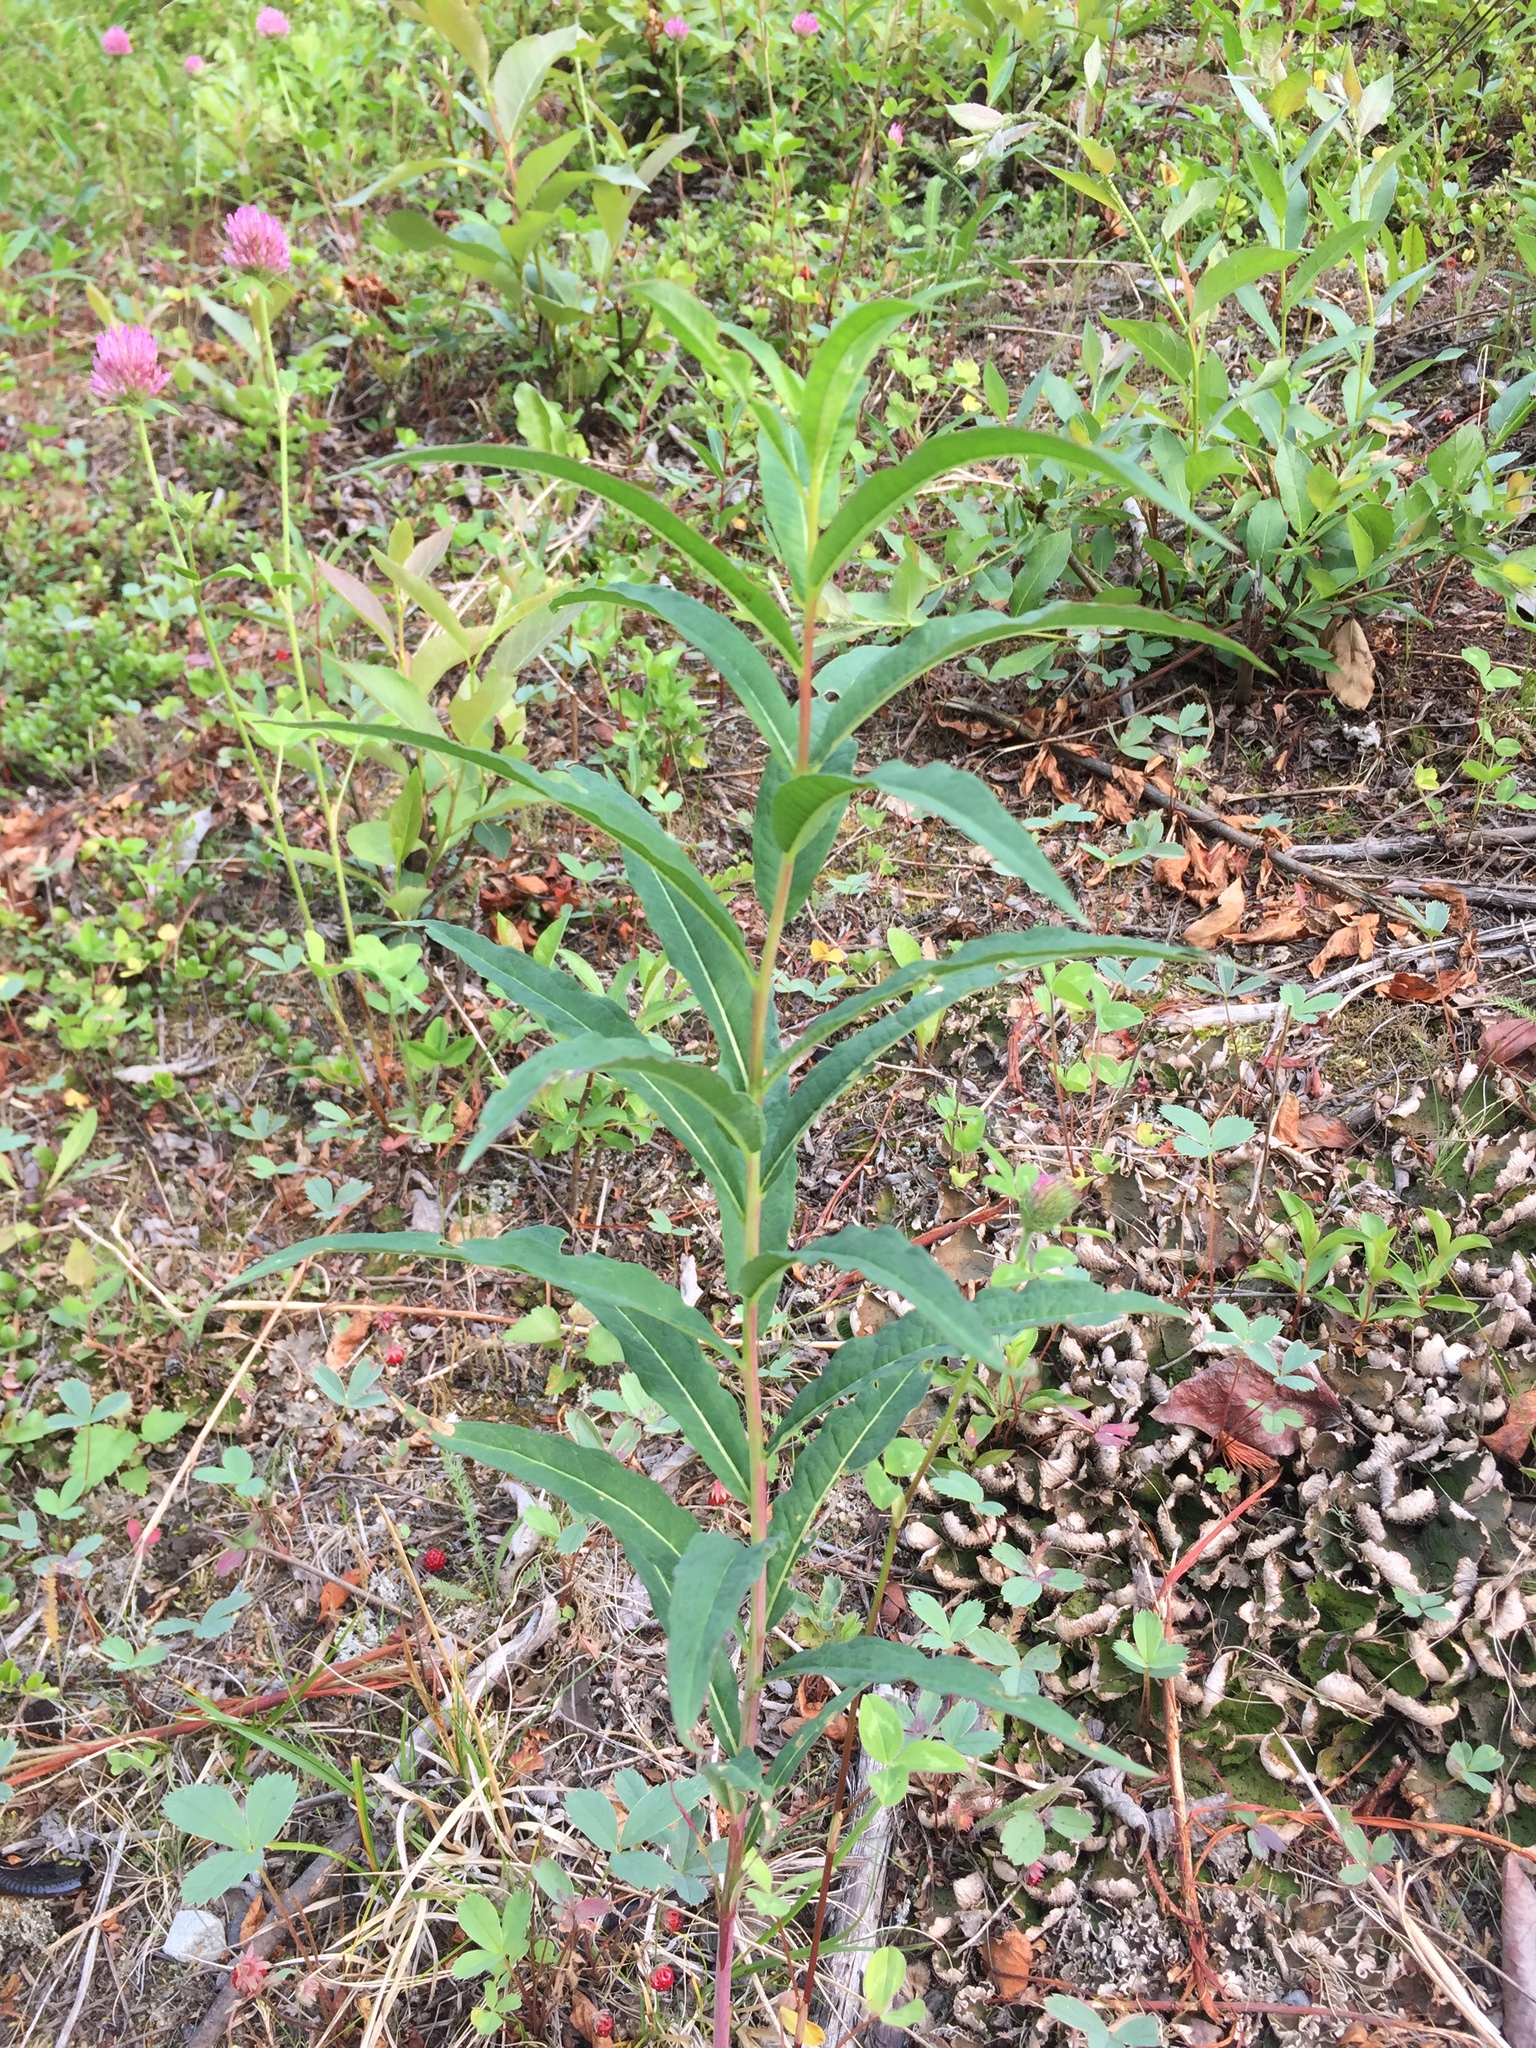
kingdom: Plantae
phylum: Tracheophyta
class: Magnoliopsida
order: Myrtales
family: Onagraceae
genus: Chamaenerion
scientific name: Chamaenerion angustifolium
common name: Fireweed
